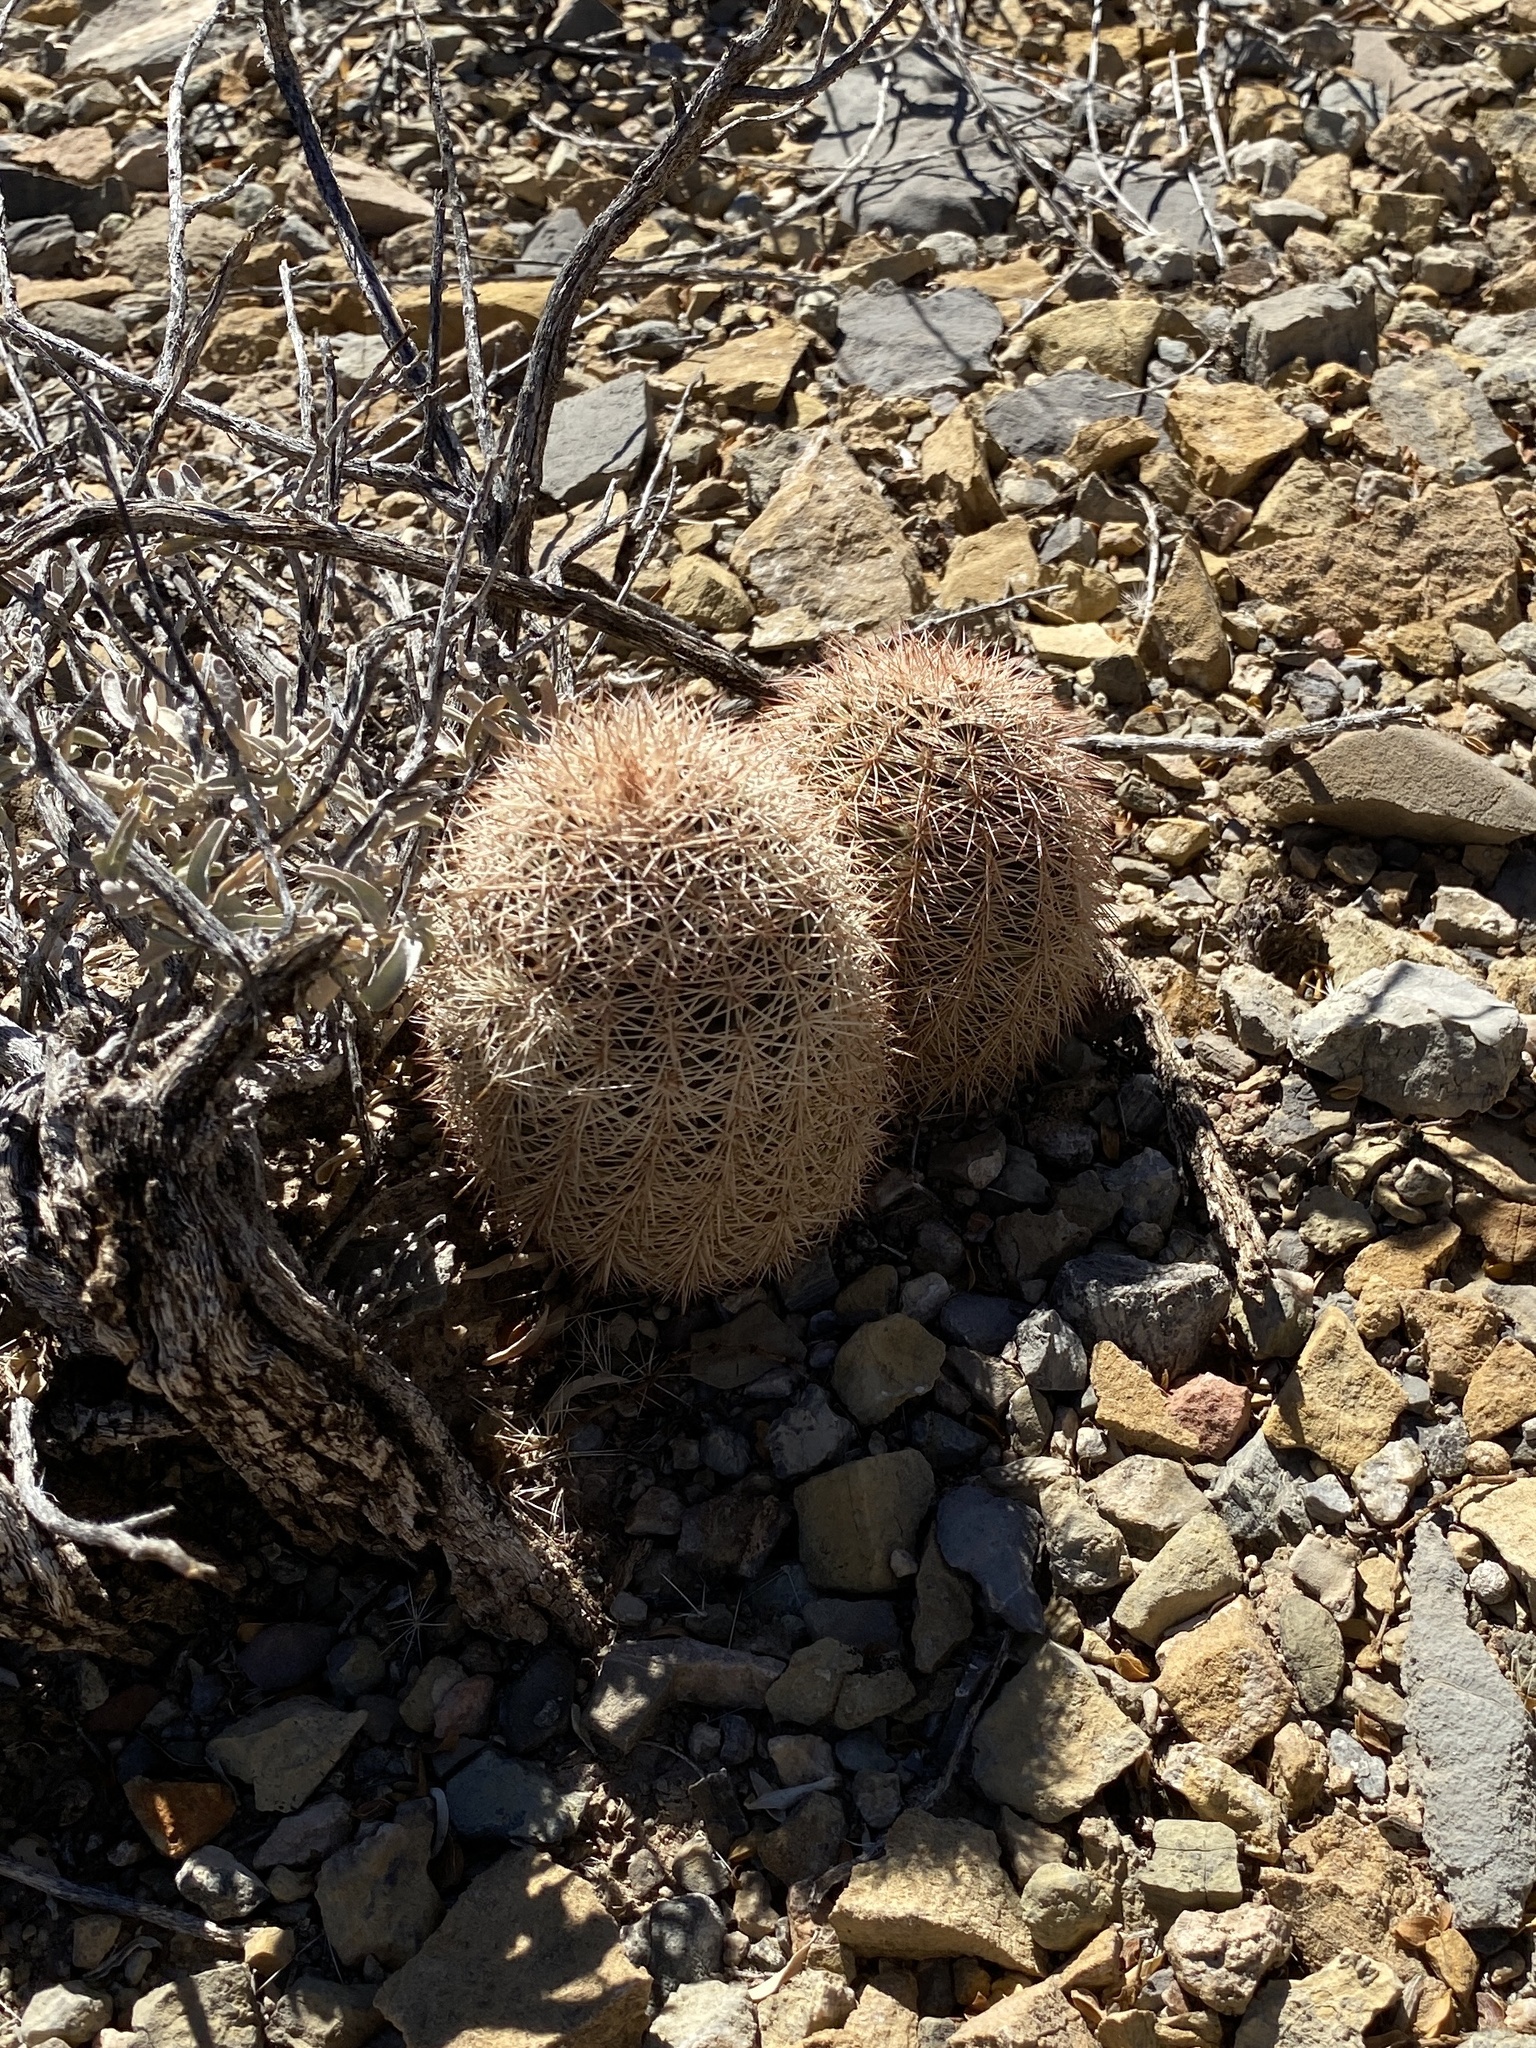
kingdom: Plantae
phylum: Tracheophyta
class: Magnoliopsida
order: Caryophyllales
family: Cactaceae
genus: Echinocereus
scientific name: Echinocereus dasyacanthus
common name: Spiny hedgehog cactus
